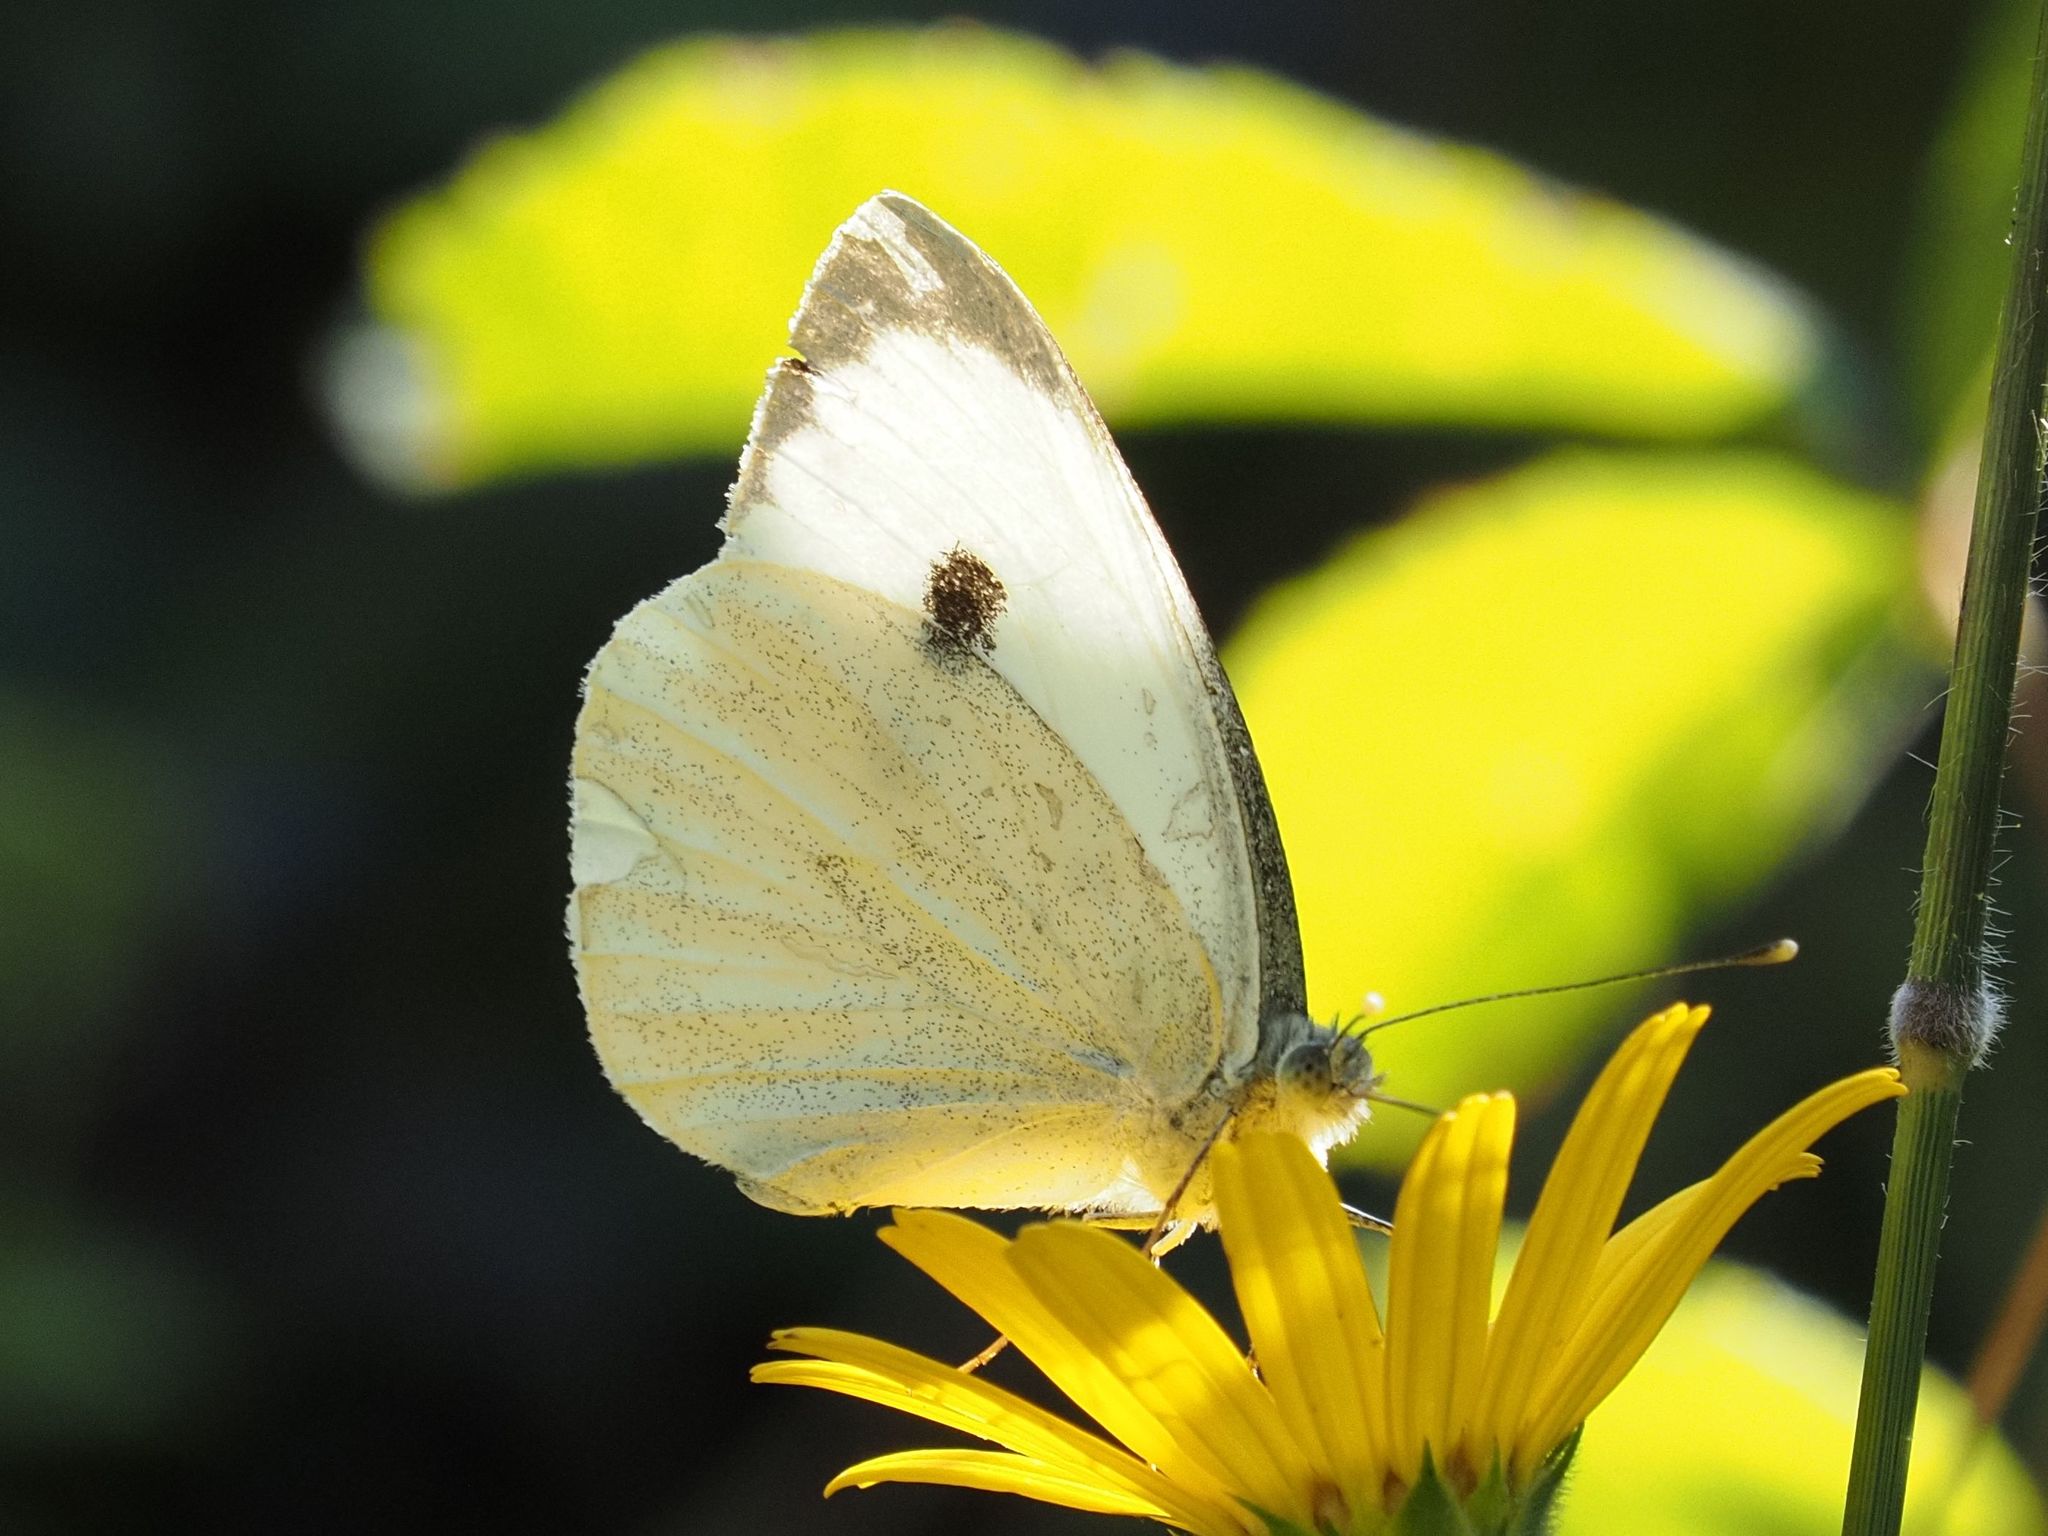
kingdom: Animalia
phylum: Arthropoda
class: Insecta
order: Lepidoptera
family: Pieridae
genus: Pieris
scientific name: Pieris brassicae
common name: Large white
